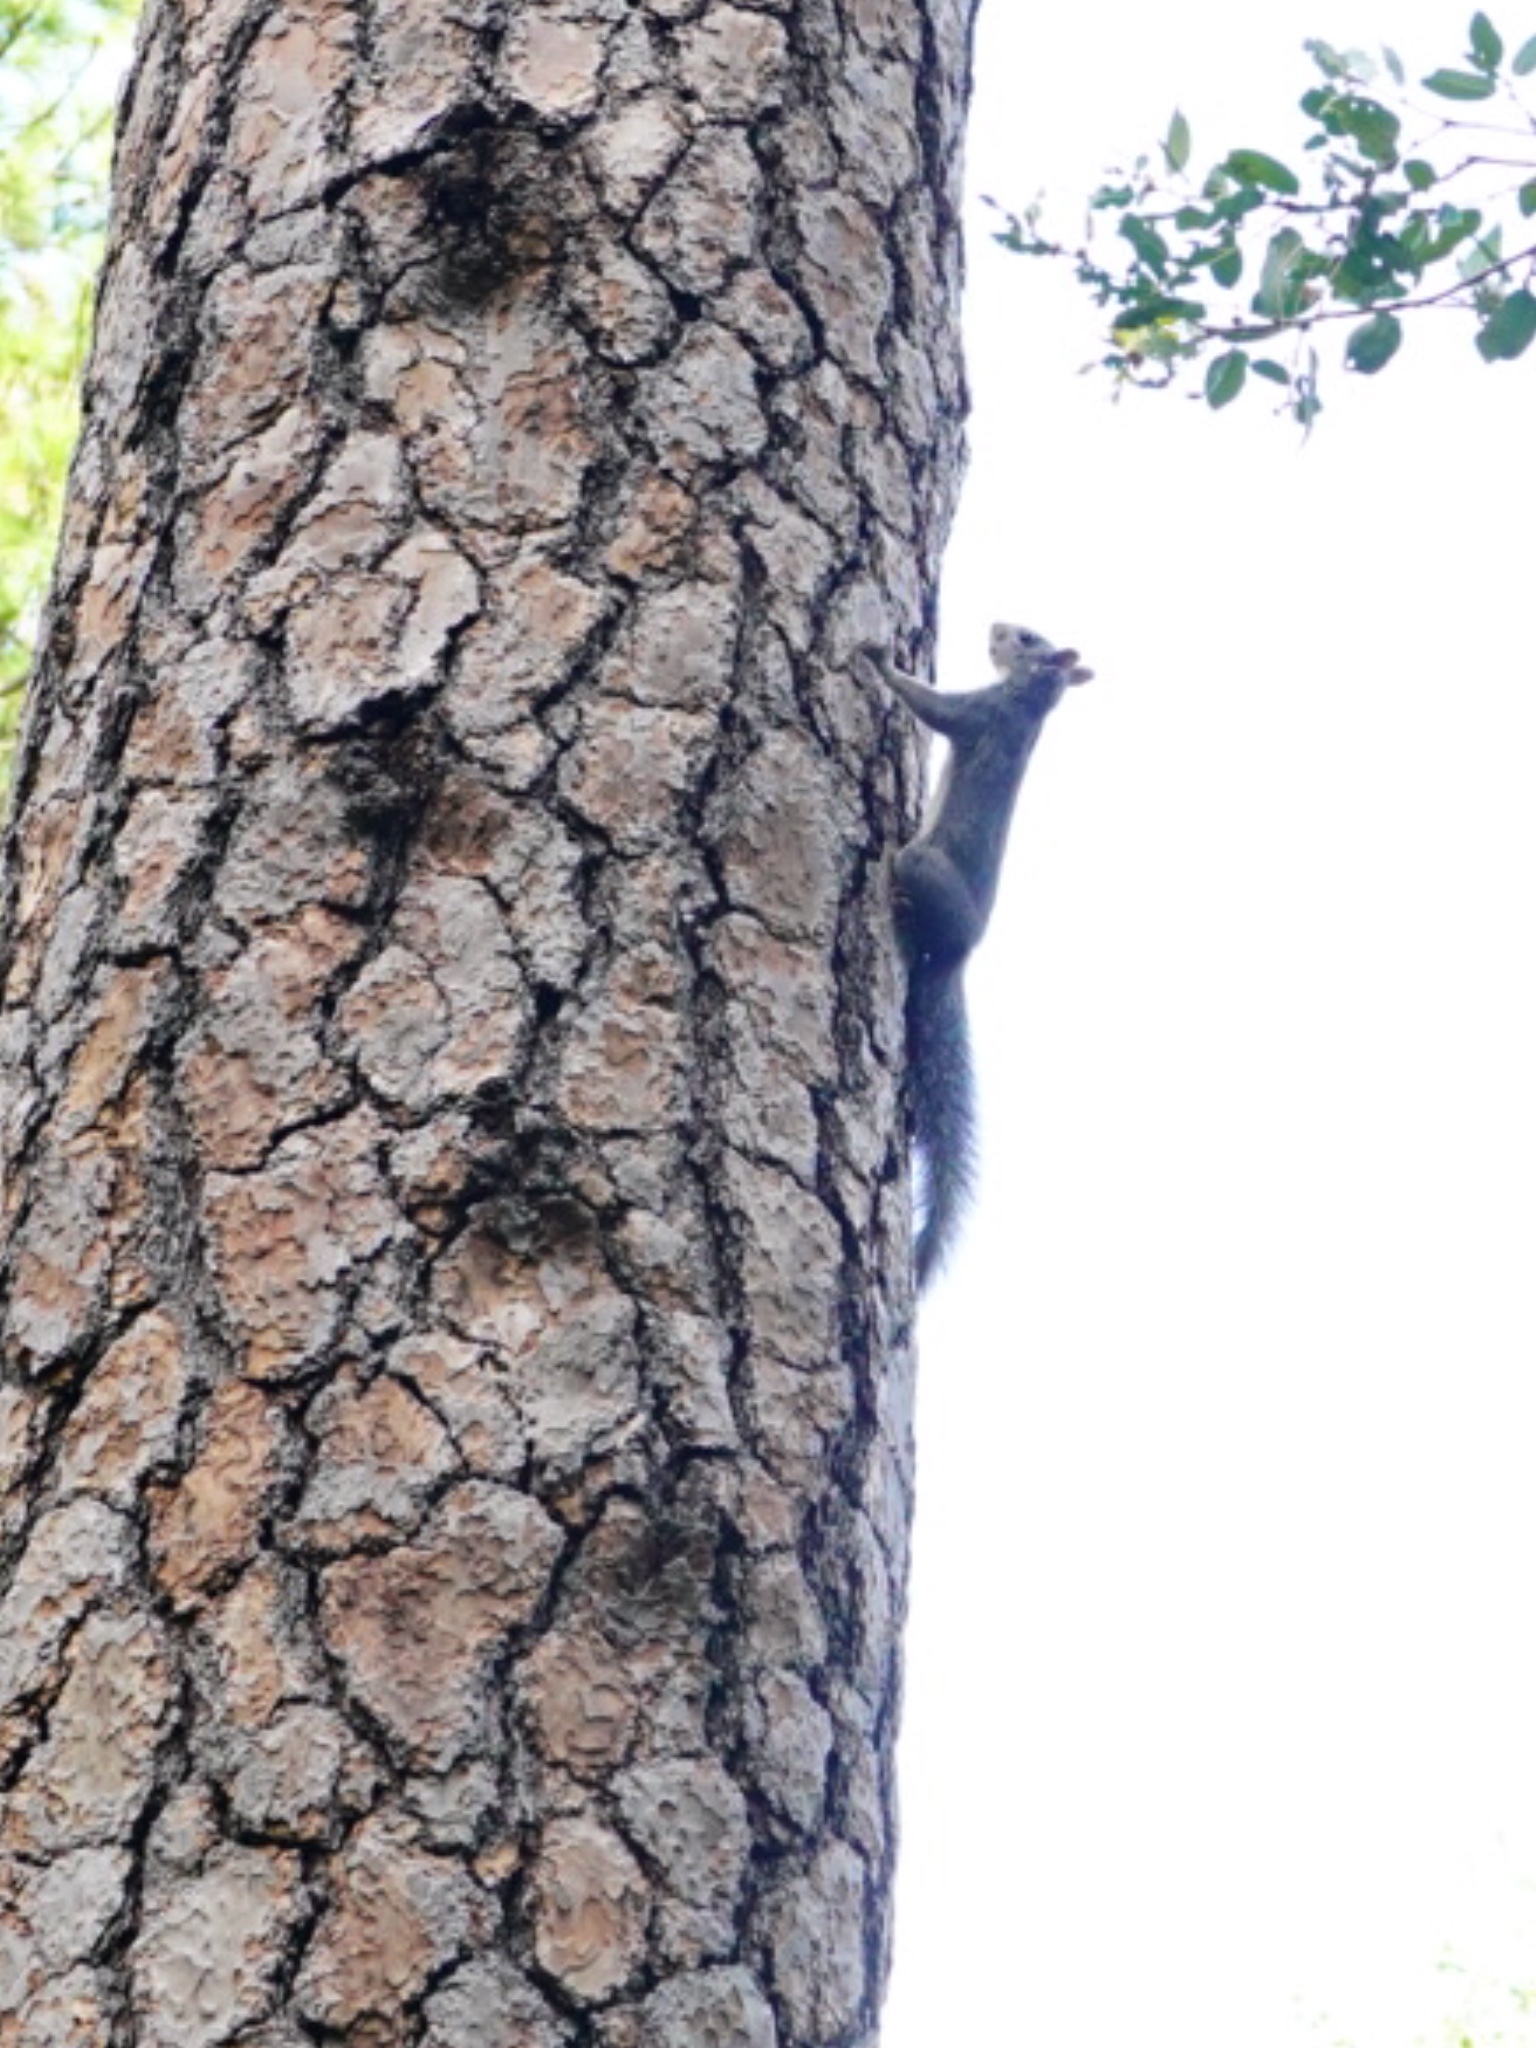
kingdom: Animalia
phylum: Chordata
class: Mammalia
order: Rodentia
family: Sciuridae
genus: Sciurus
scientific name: Sciurus griseus
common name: Western gray squirrel
